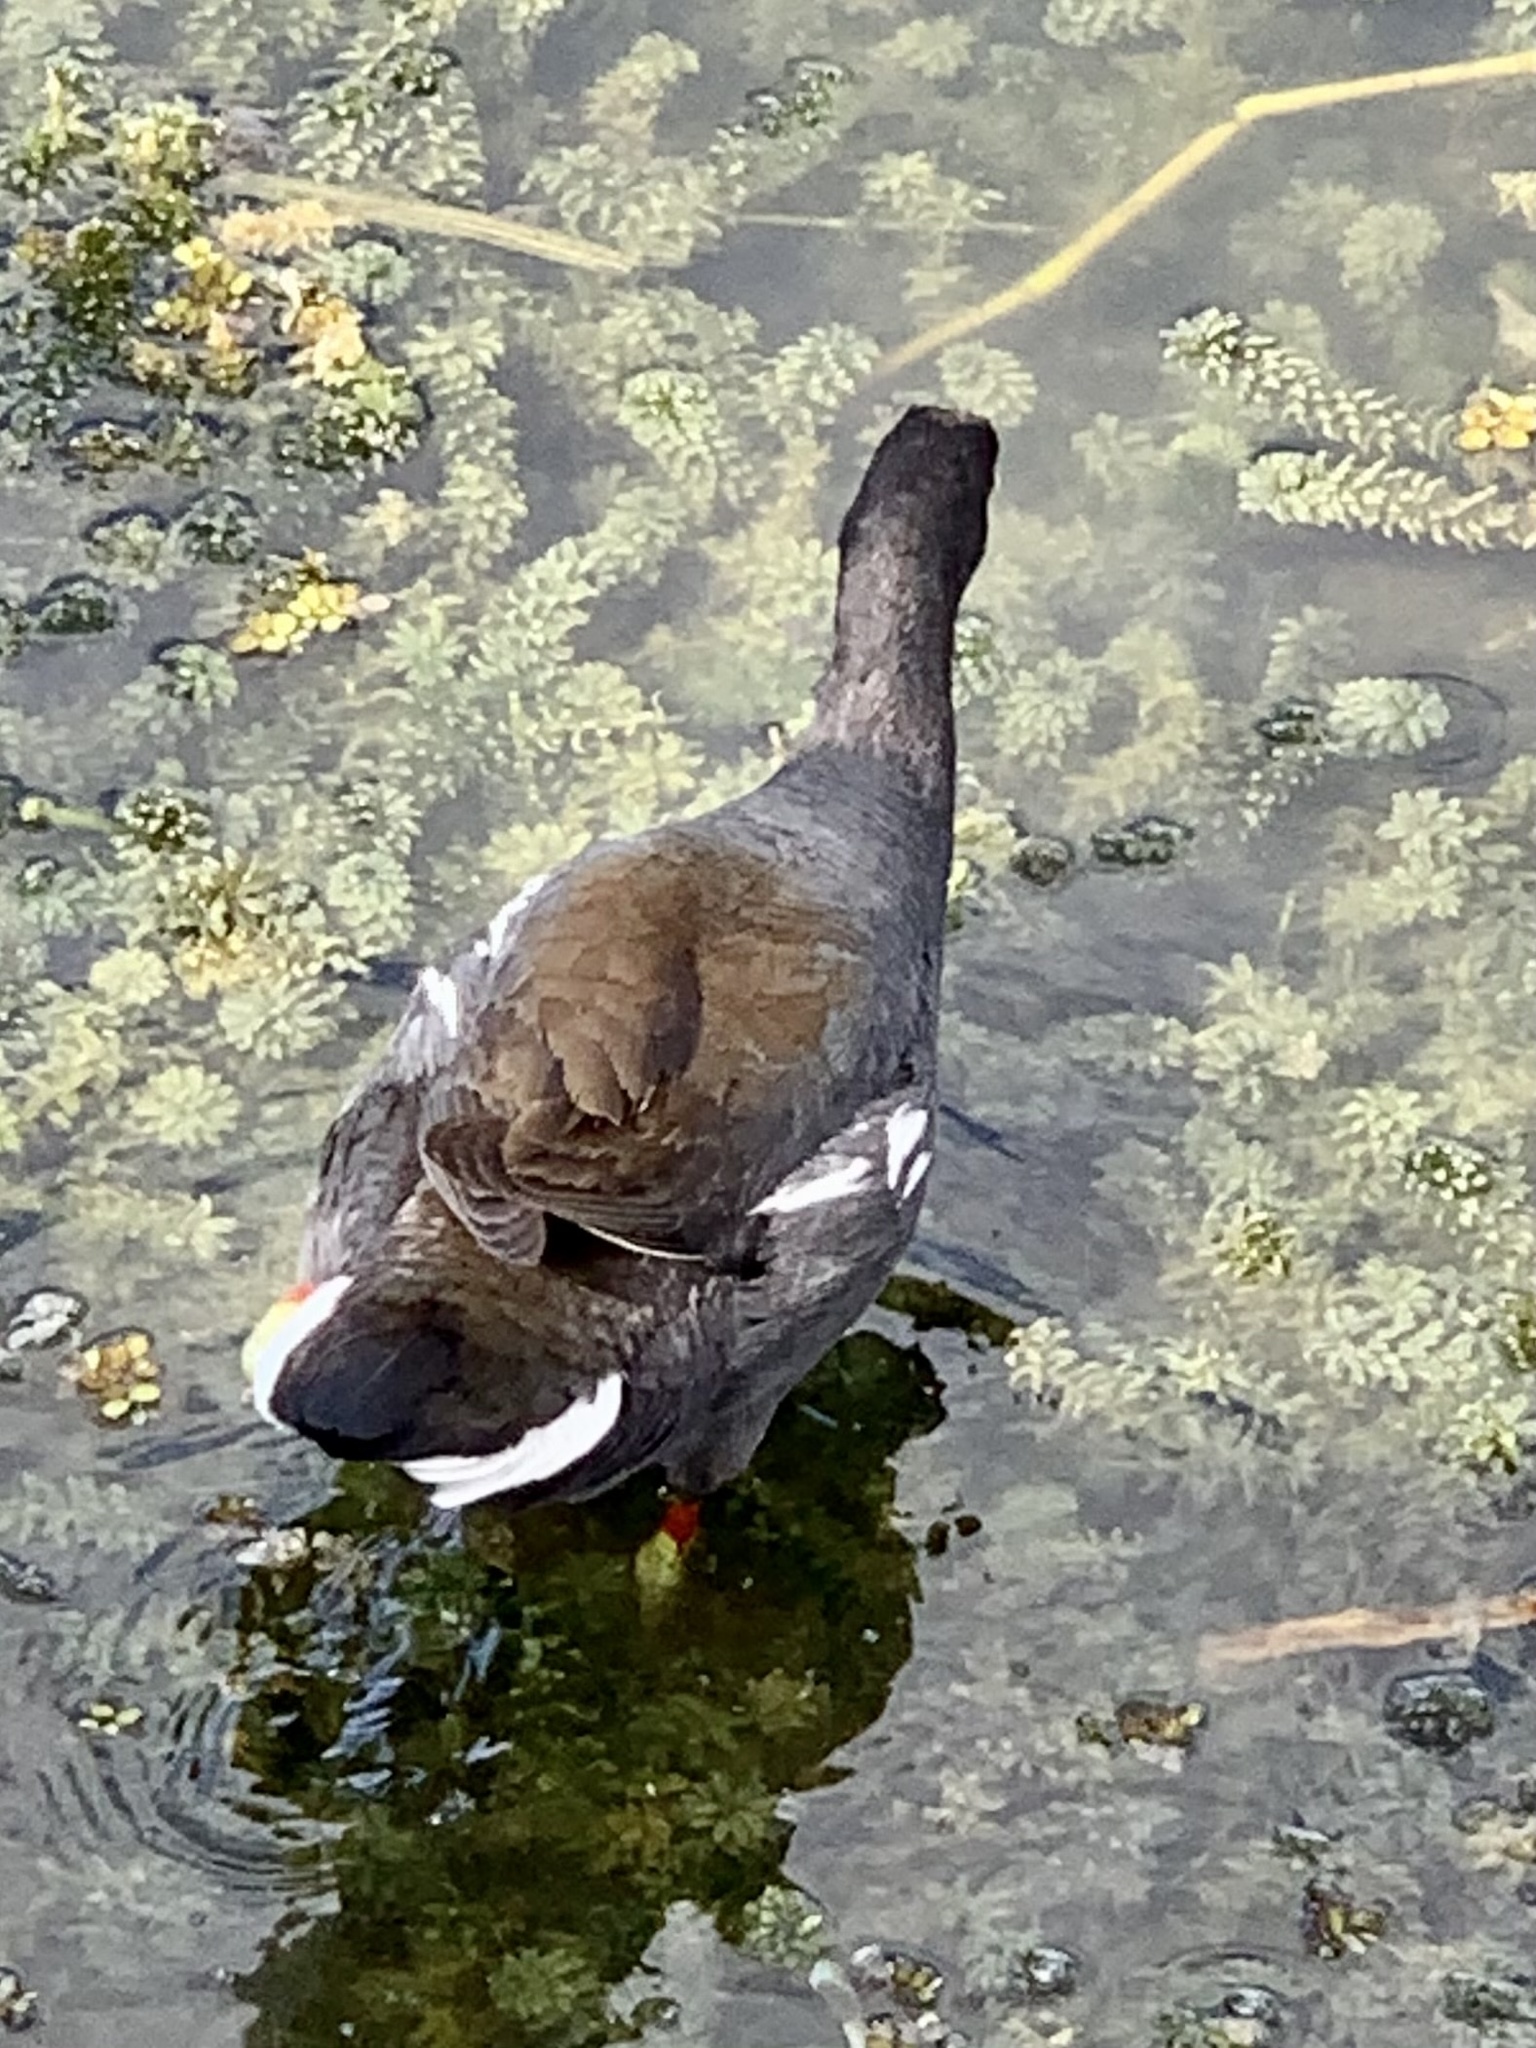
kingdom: Animalia
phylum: Chordata
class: Aves
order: Gruiformes
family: Rallidae
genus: Gallinula
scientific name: Gallinula chloropus
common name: Common moorhen
